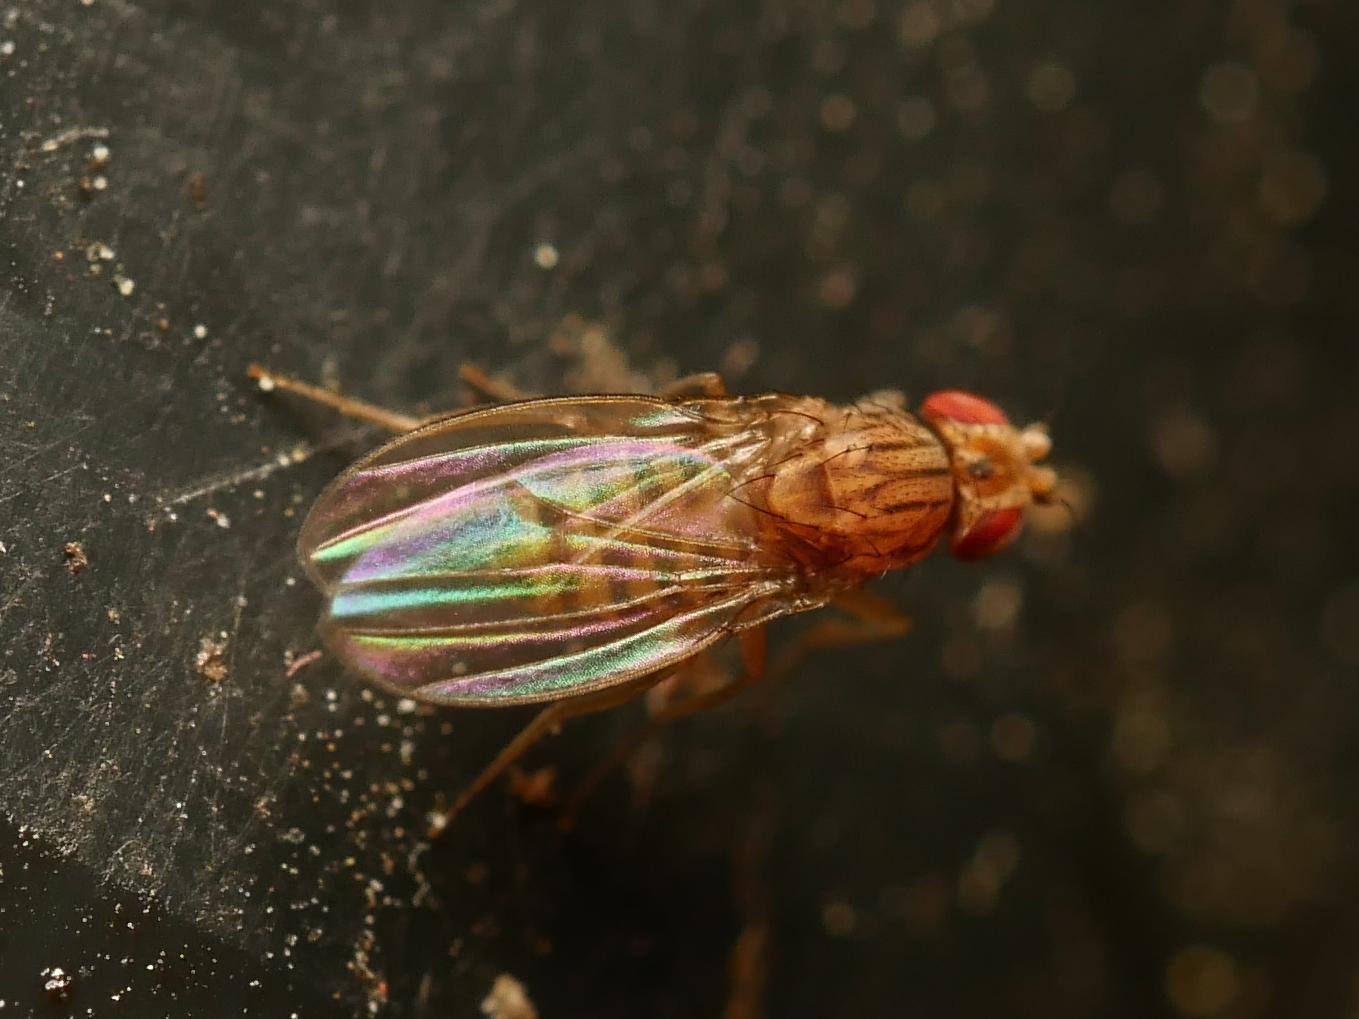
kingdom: Animalia
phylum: Arthropoda
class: Insecta
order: Diptera
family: Drosophilidae
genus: Drosophila
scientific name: Drosophila busckii
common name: Pomace fly
